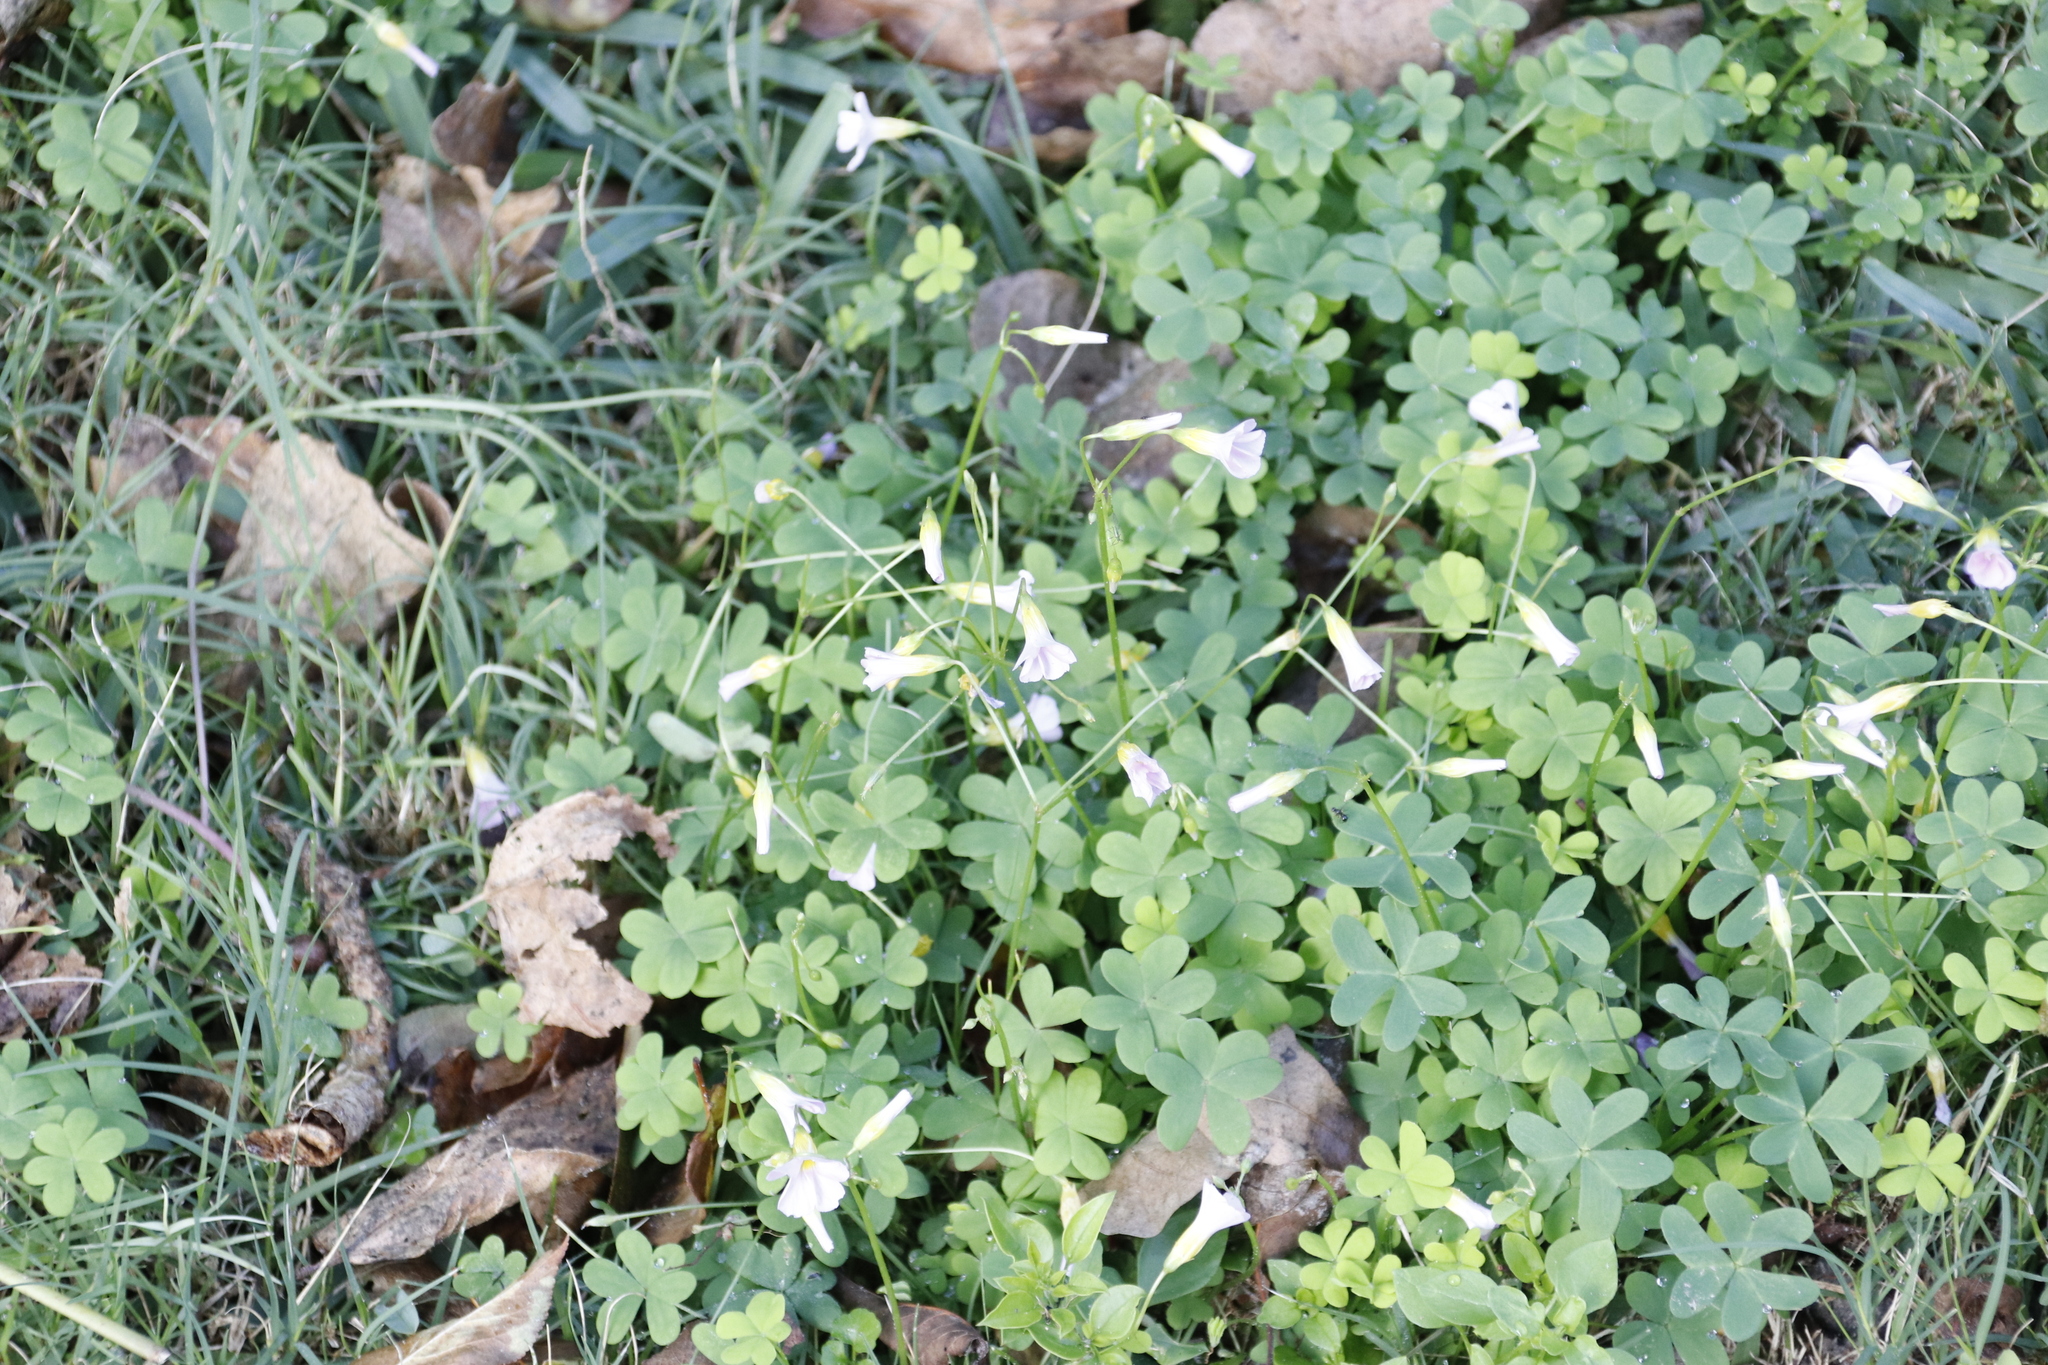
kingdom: Plantae
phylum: Tracheophyta
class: Magnoliopsida
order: Oxalidales
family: Oxalidaceae
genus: Oxalis
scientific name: Oxalis caprina
